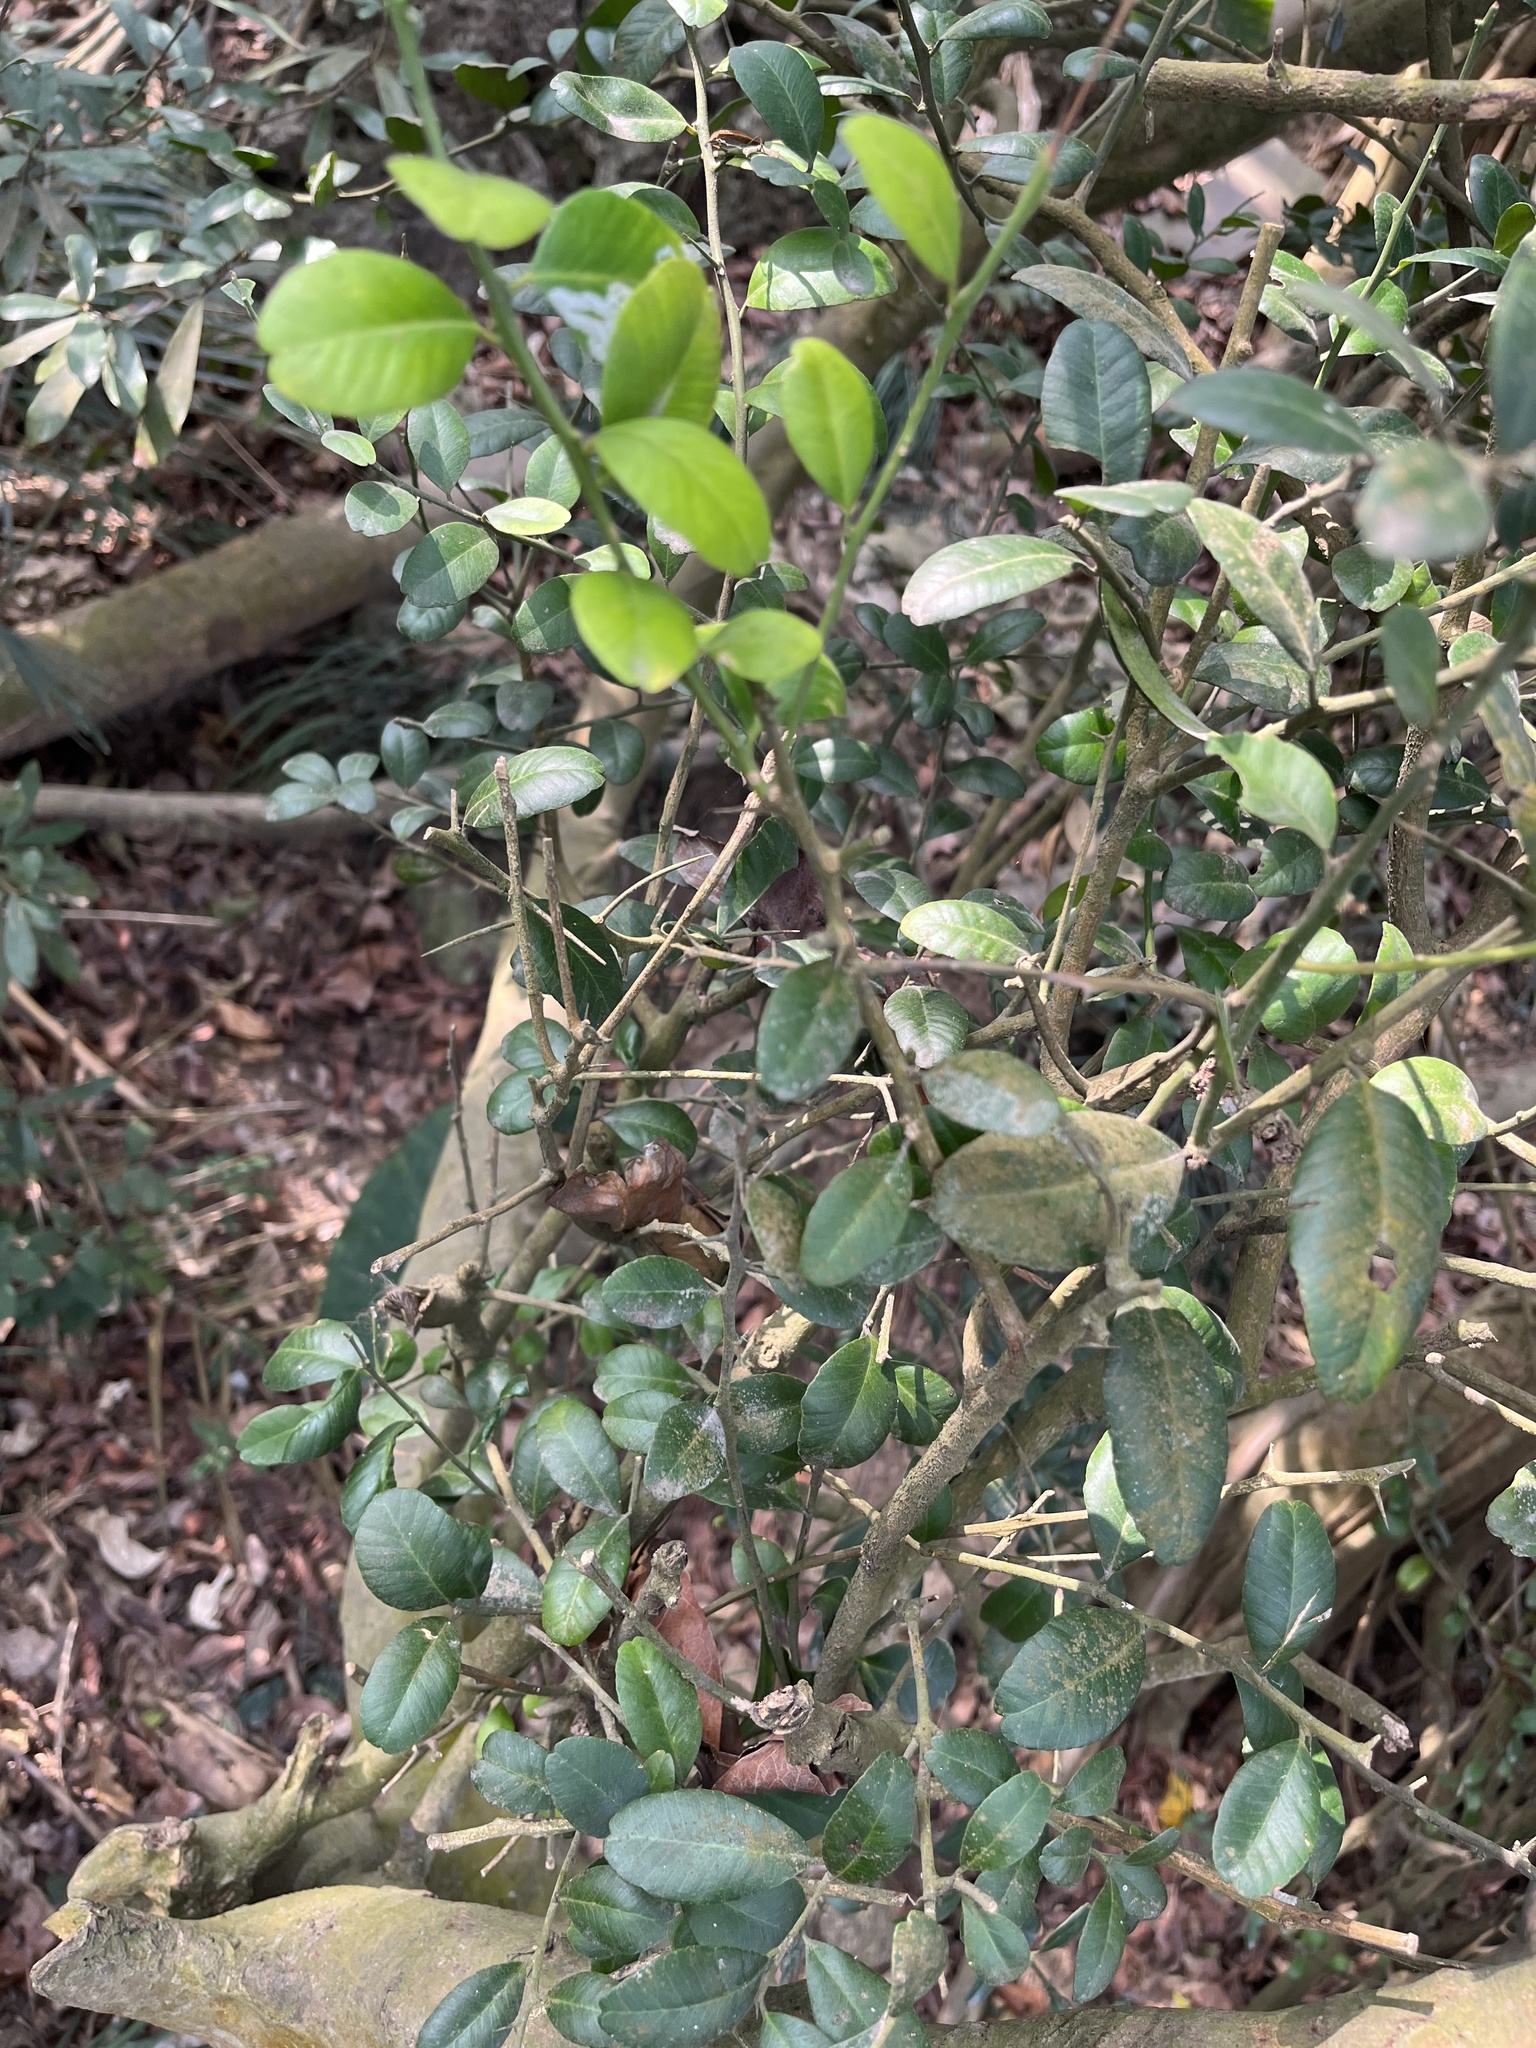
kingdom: Plantae
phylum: Tracheophyta
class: Magnoliopsida
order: Sapindales
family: Rutaceae
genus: Atalantia
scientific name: Atalantia buxifolia
